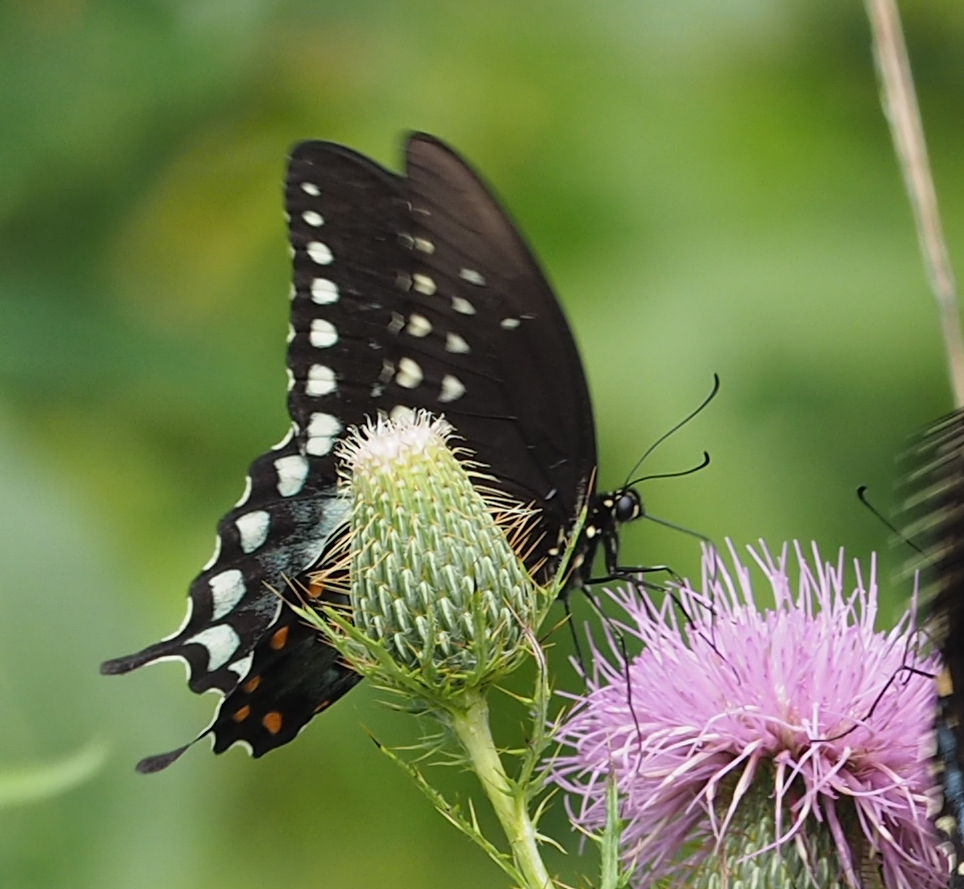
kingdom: Animalia
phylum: Arthropoda
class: Insecta
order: Lepidoptera
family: Papilionidae
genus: Papilio
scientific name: Papilio troilus
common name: Spicebush swallowtail
